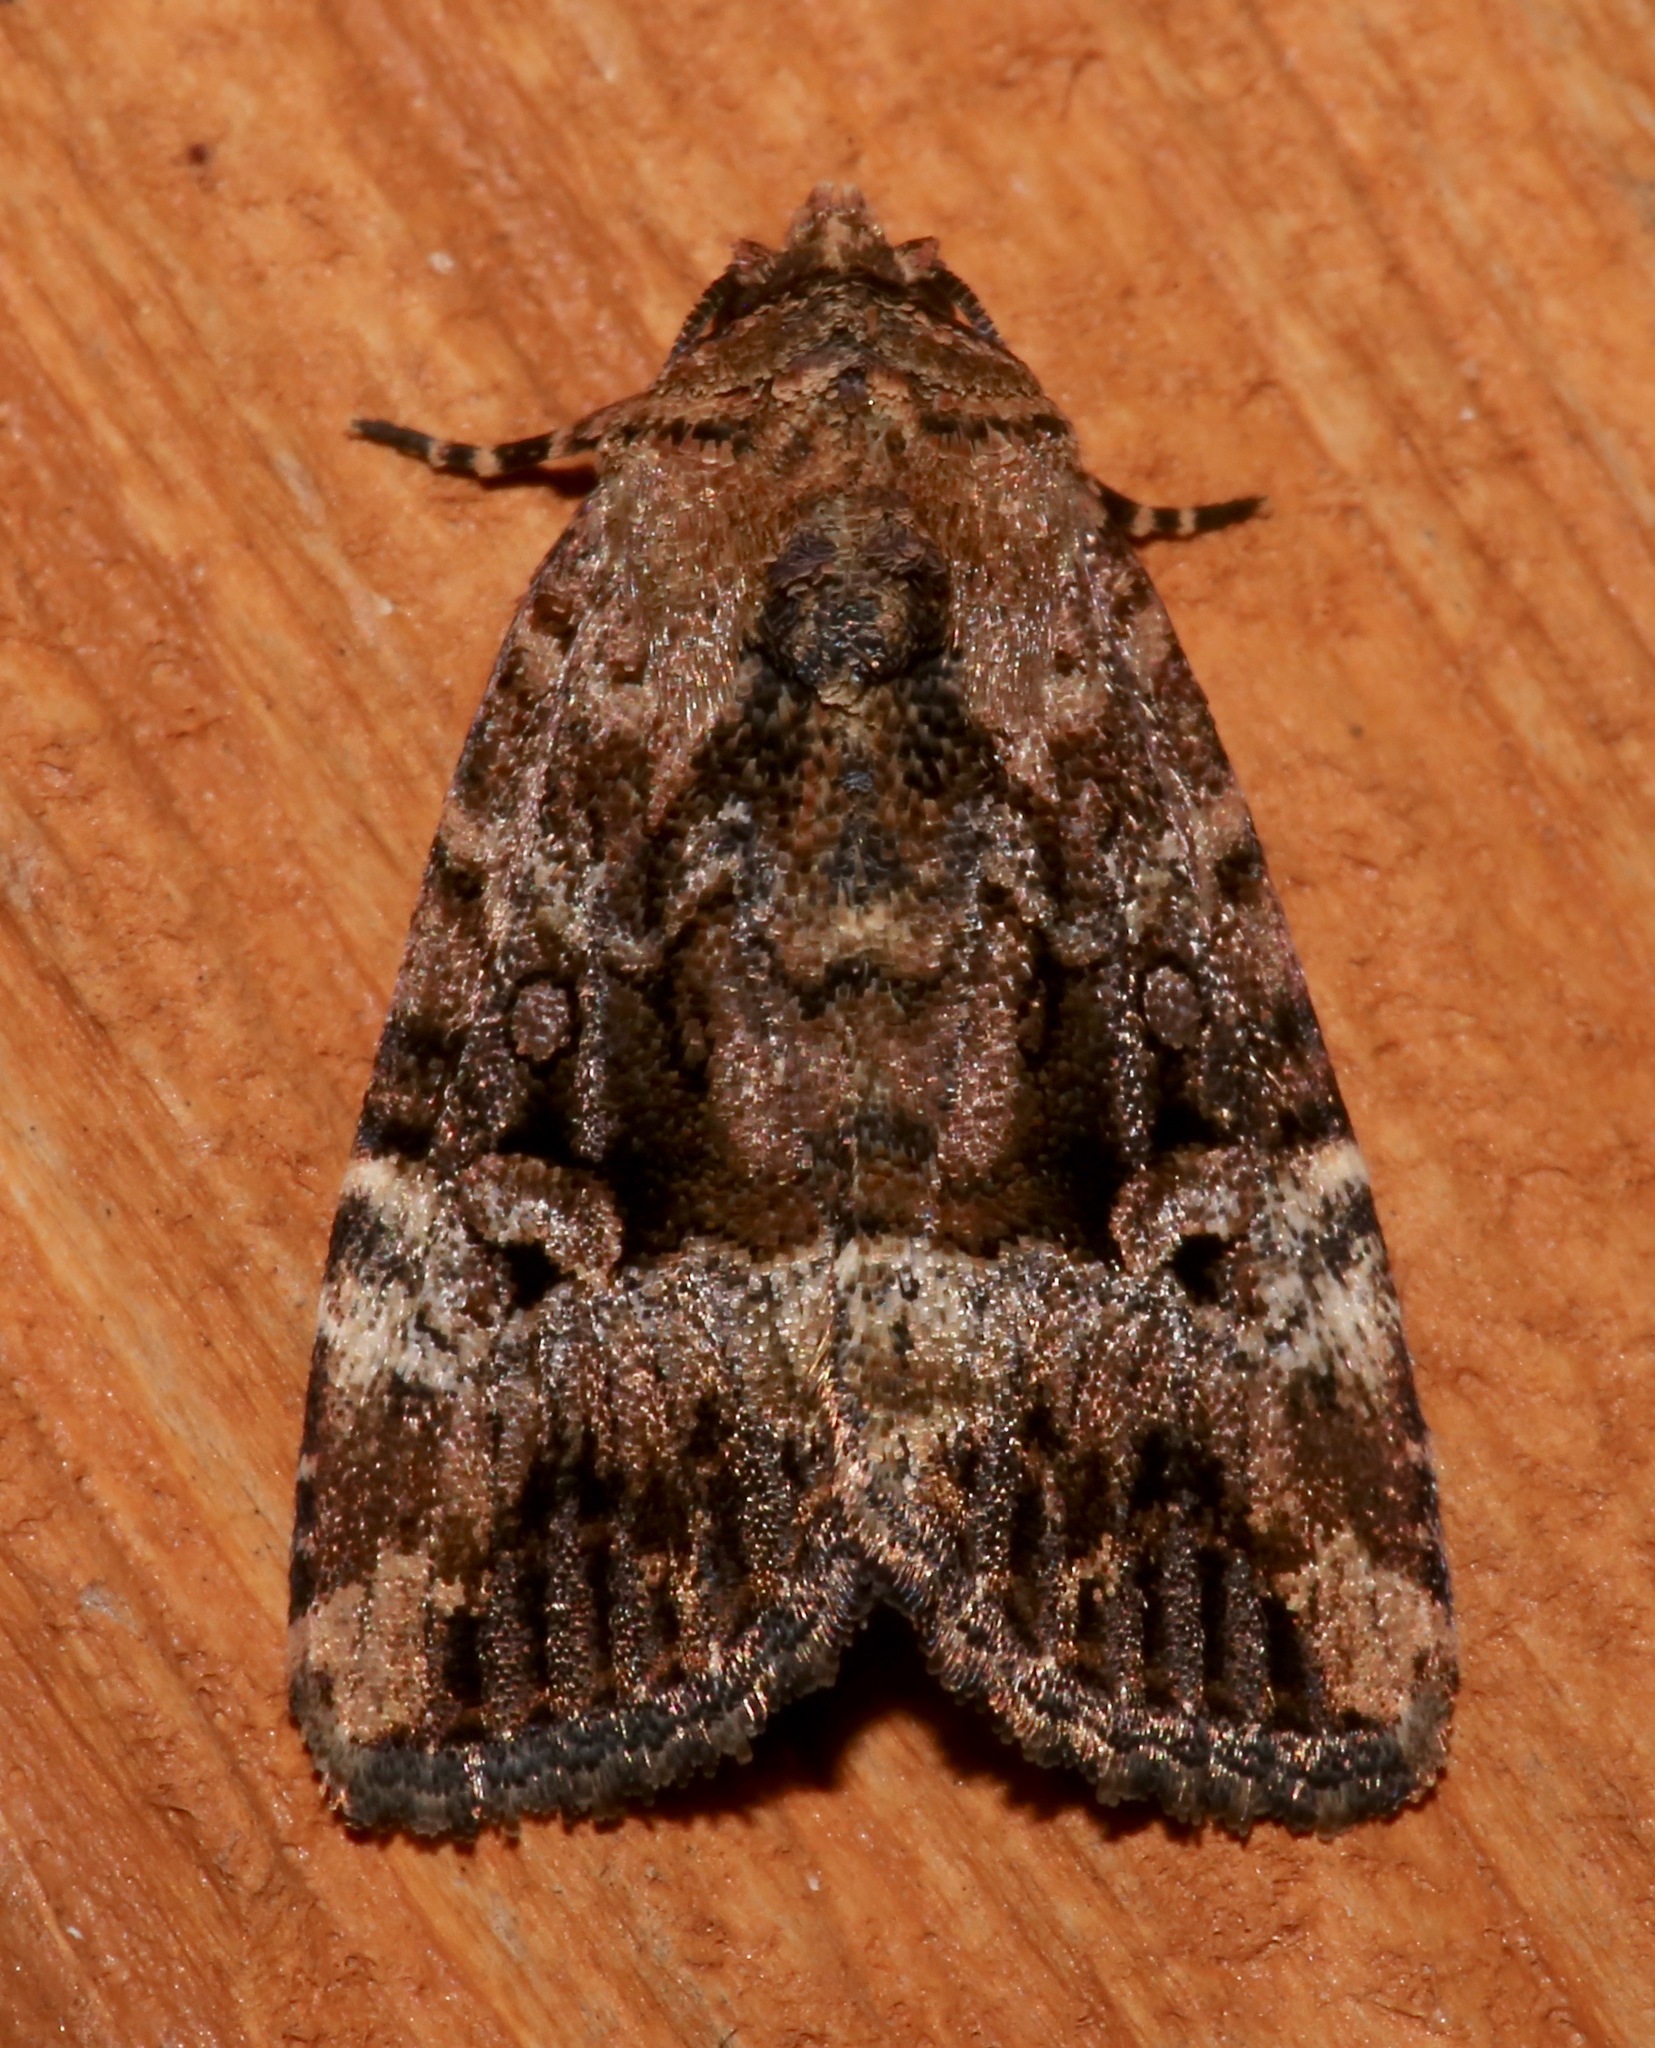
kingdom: Animalia
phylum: Arthropoda
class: Insecta
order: Lepidoptera
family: Noctuidae
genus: Elaphria
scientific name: Elaphria exesa
